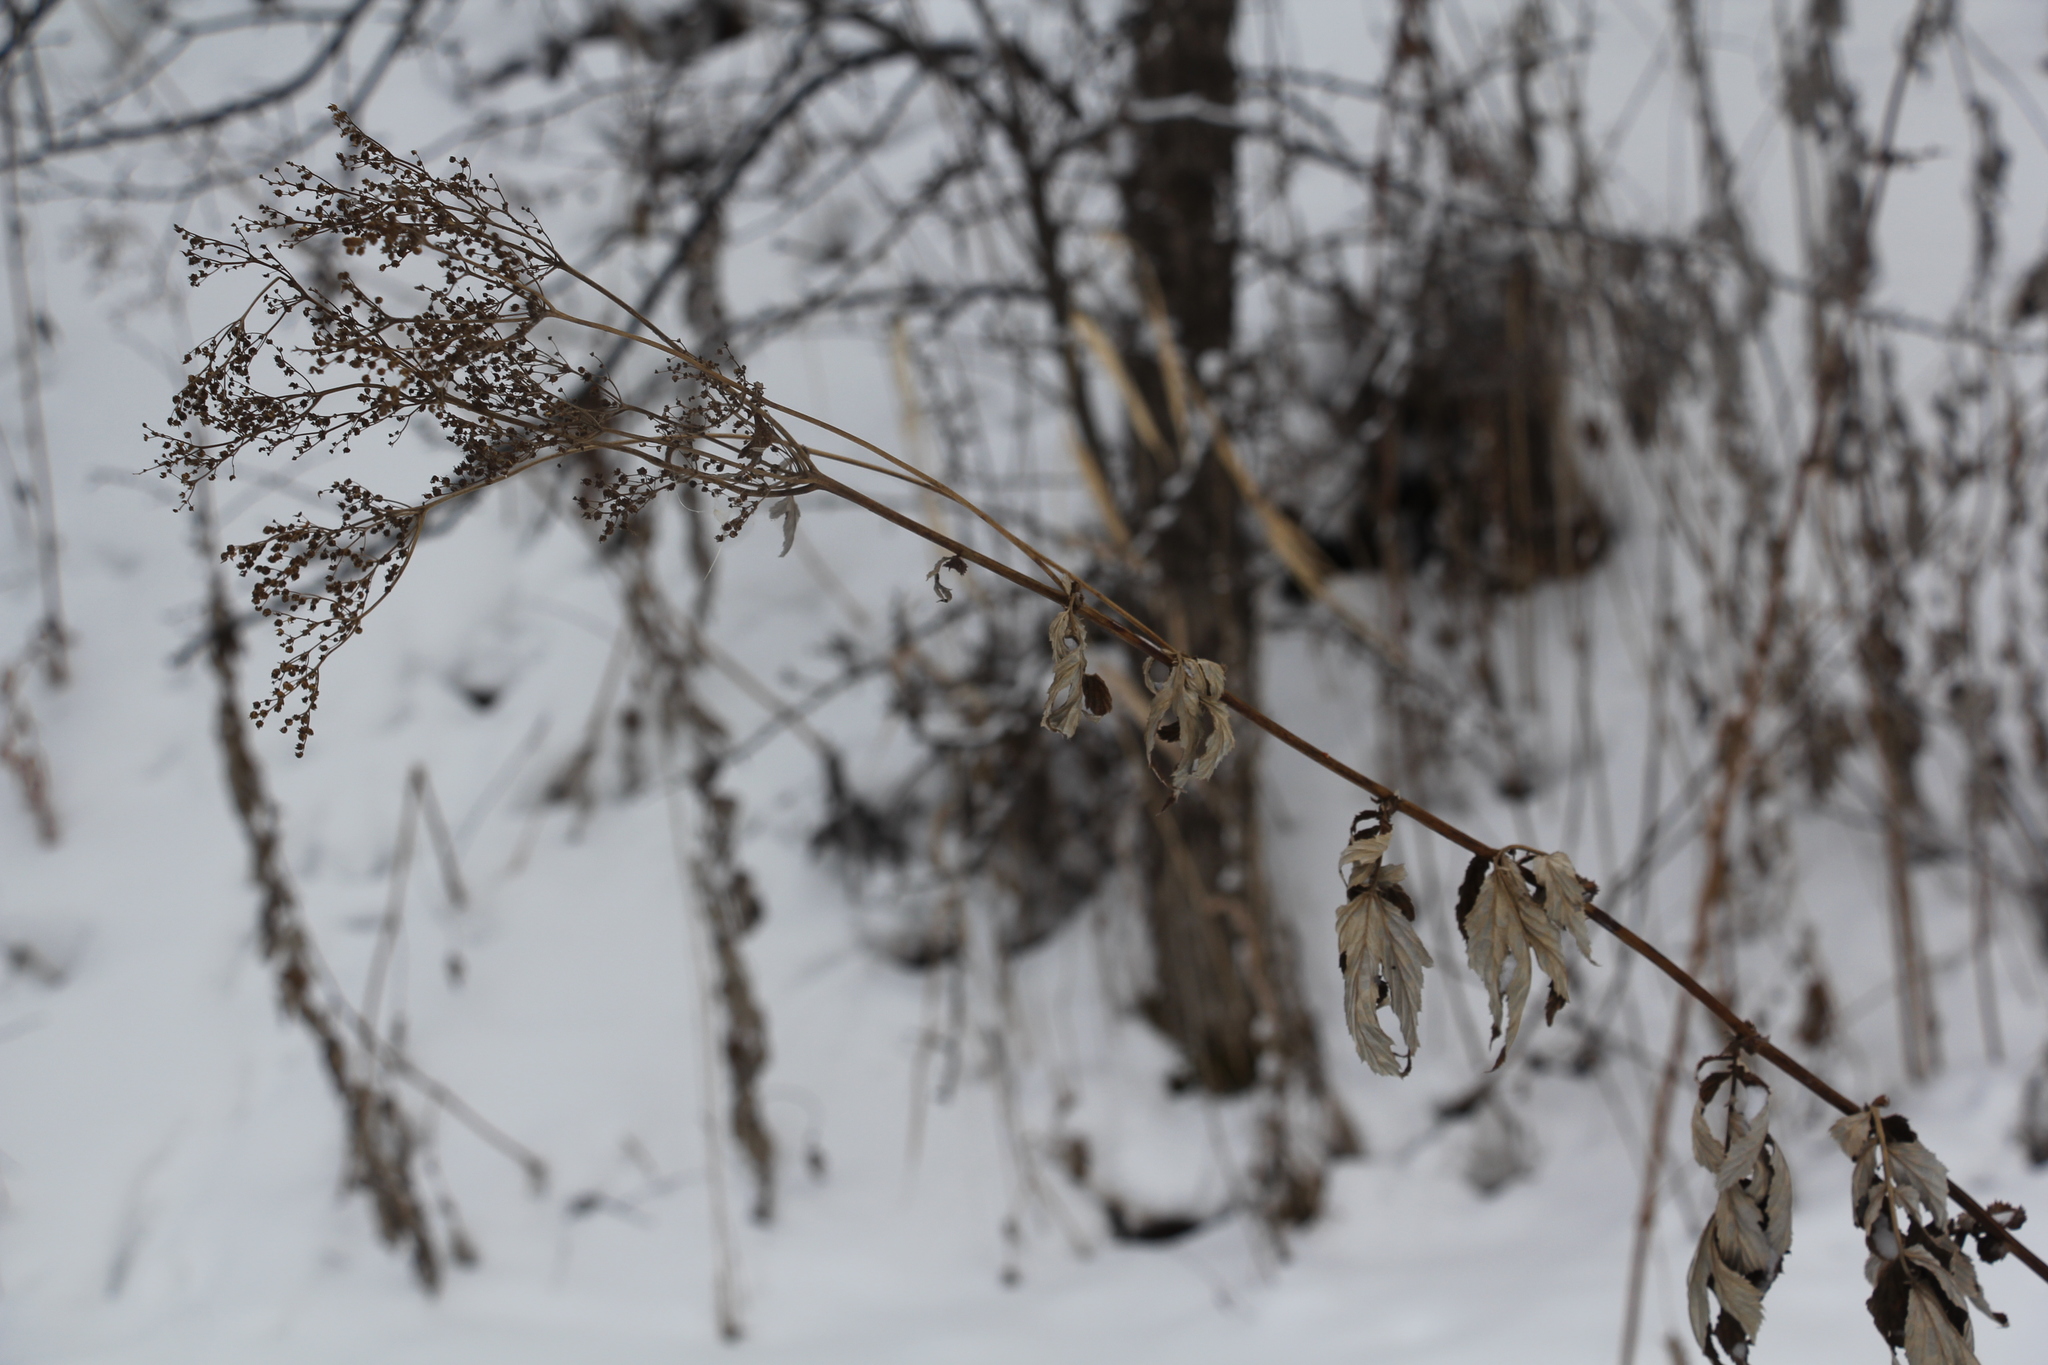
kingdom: Plantae
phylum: Tracheophyta
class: Magnoliopsida
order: Rosales
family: Rosaceae
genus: Filipendula
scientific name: Filipendula ulmaria
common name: Meadowsweet
